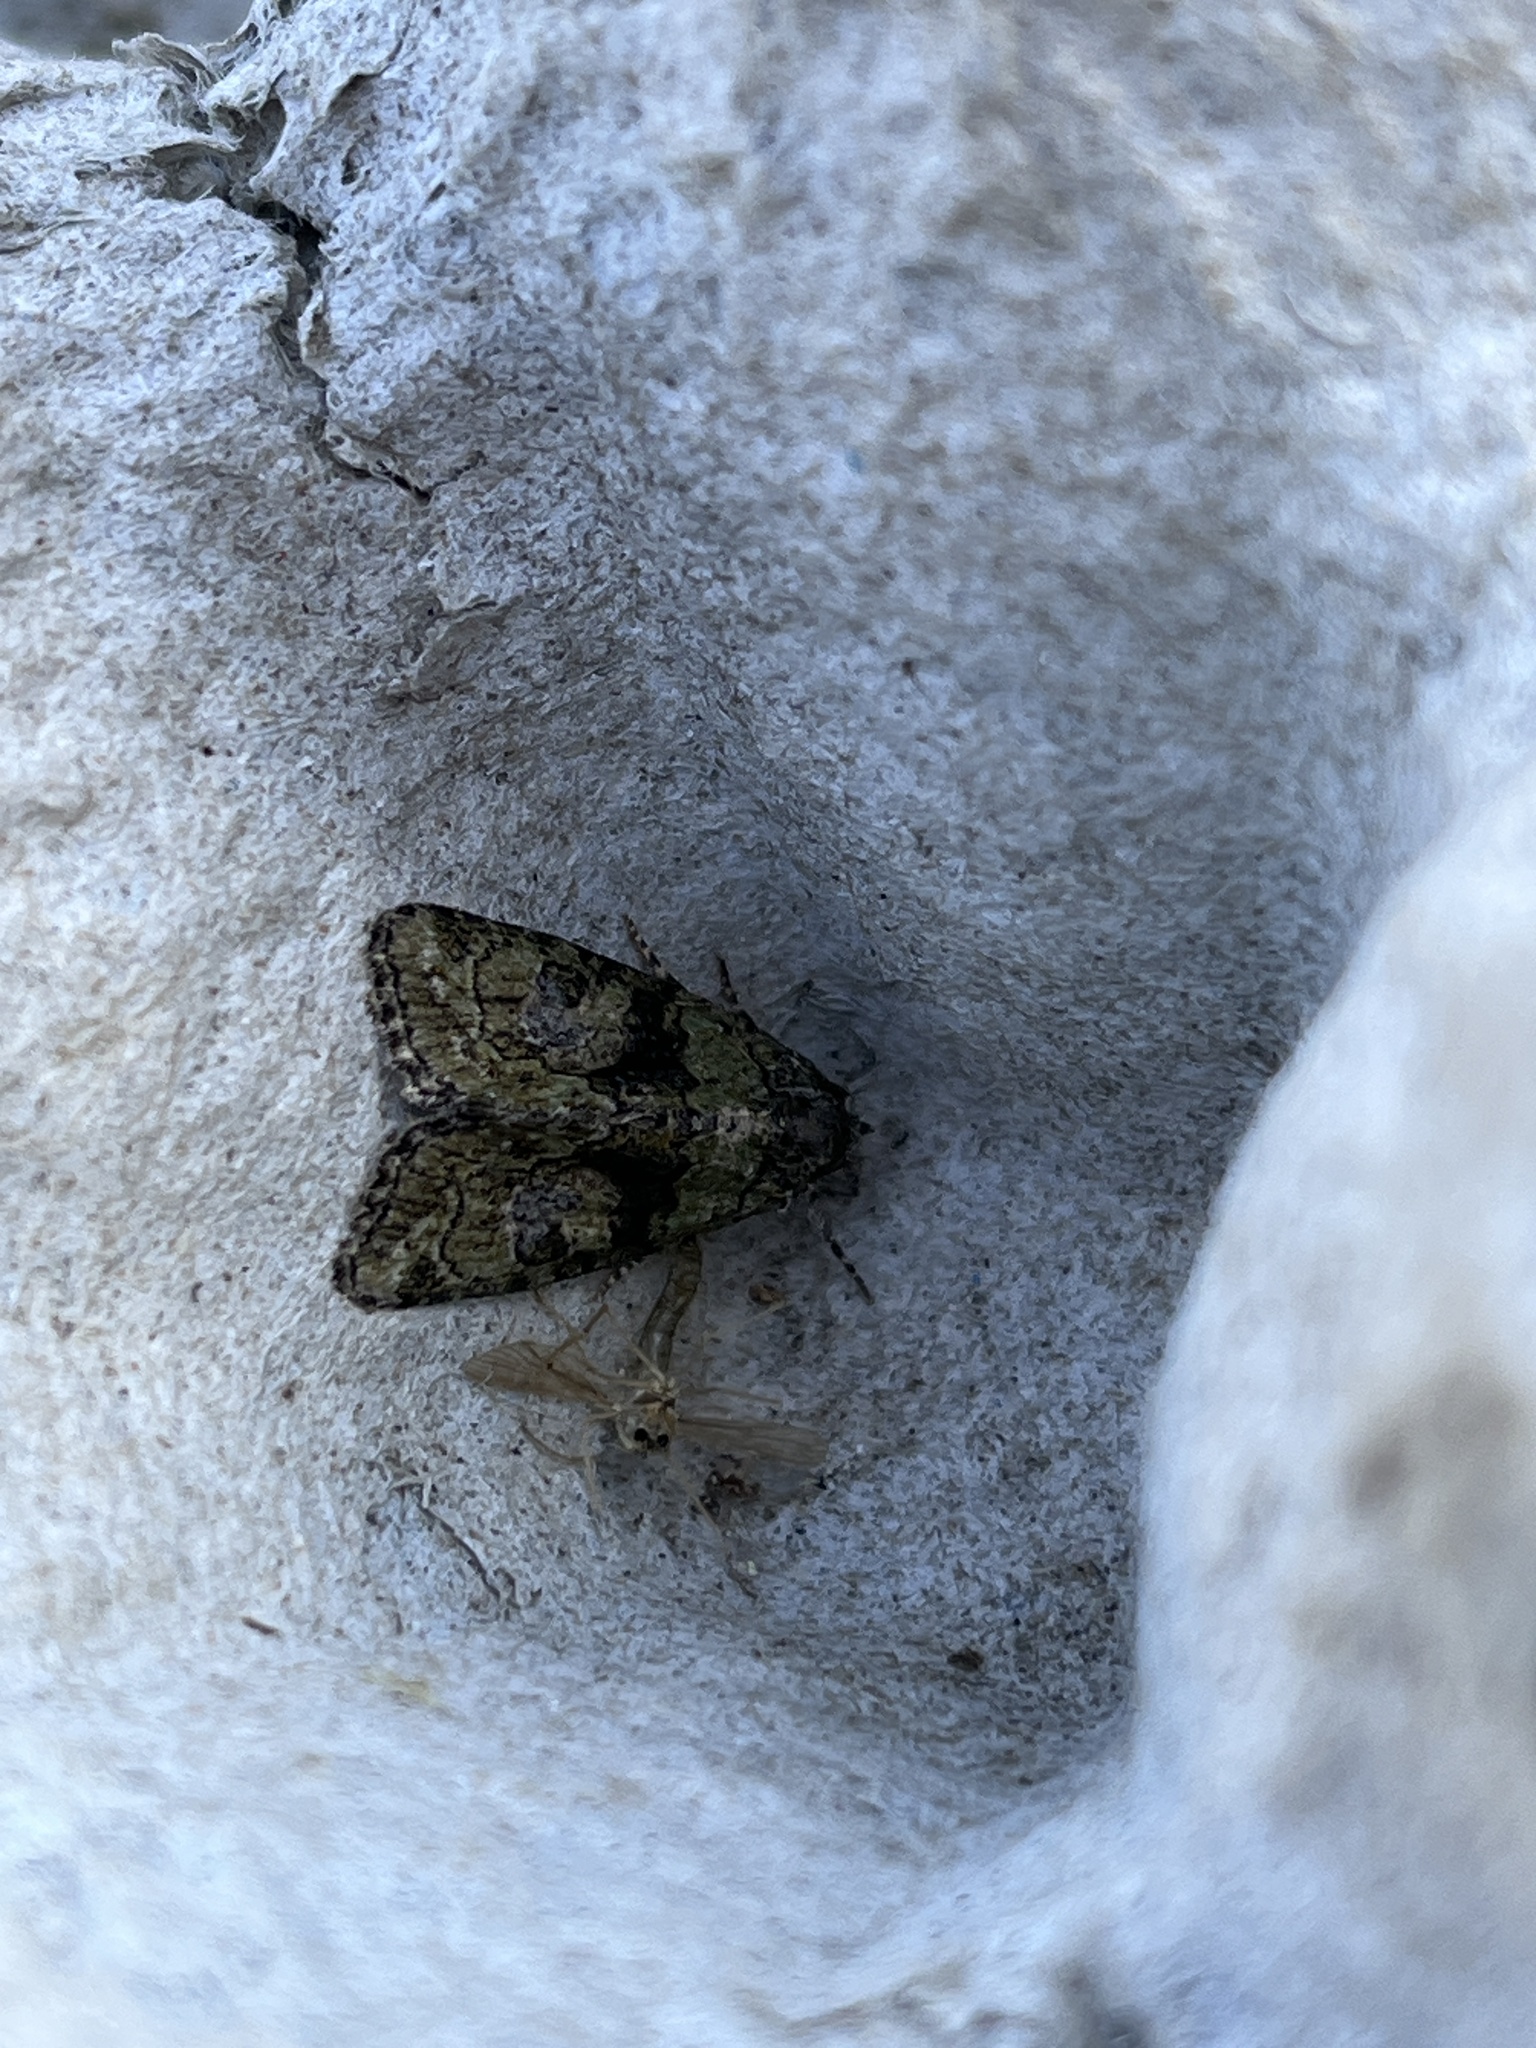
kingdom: Animalia
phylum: Arthropoda
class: Insecta
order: Lepidoptera
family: Noctuidae
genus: Cryphia
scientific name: Cryphia algae
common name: Tree-lichen beauty
